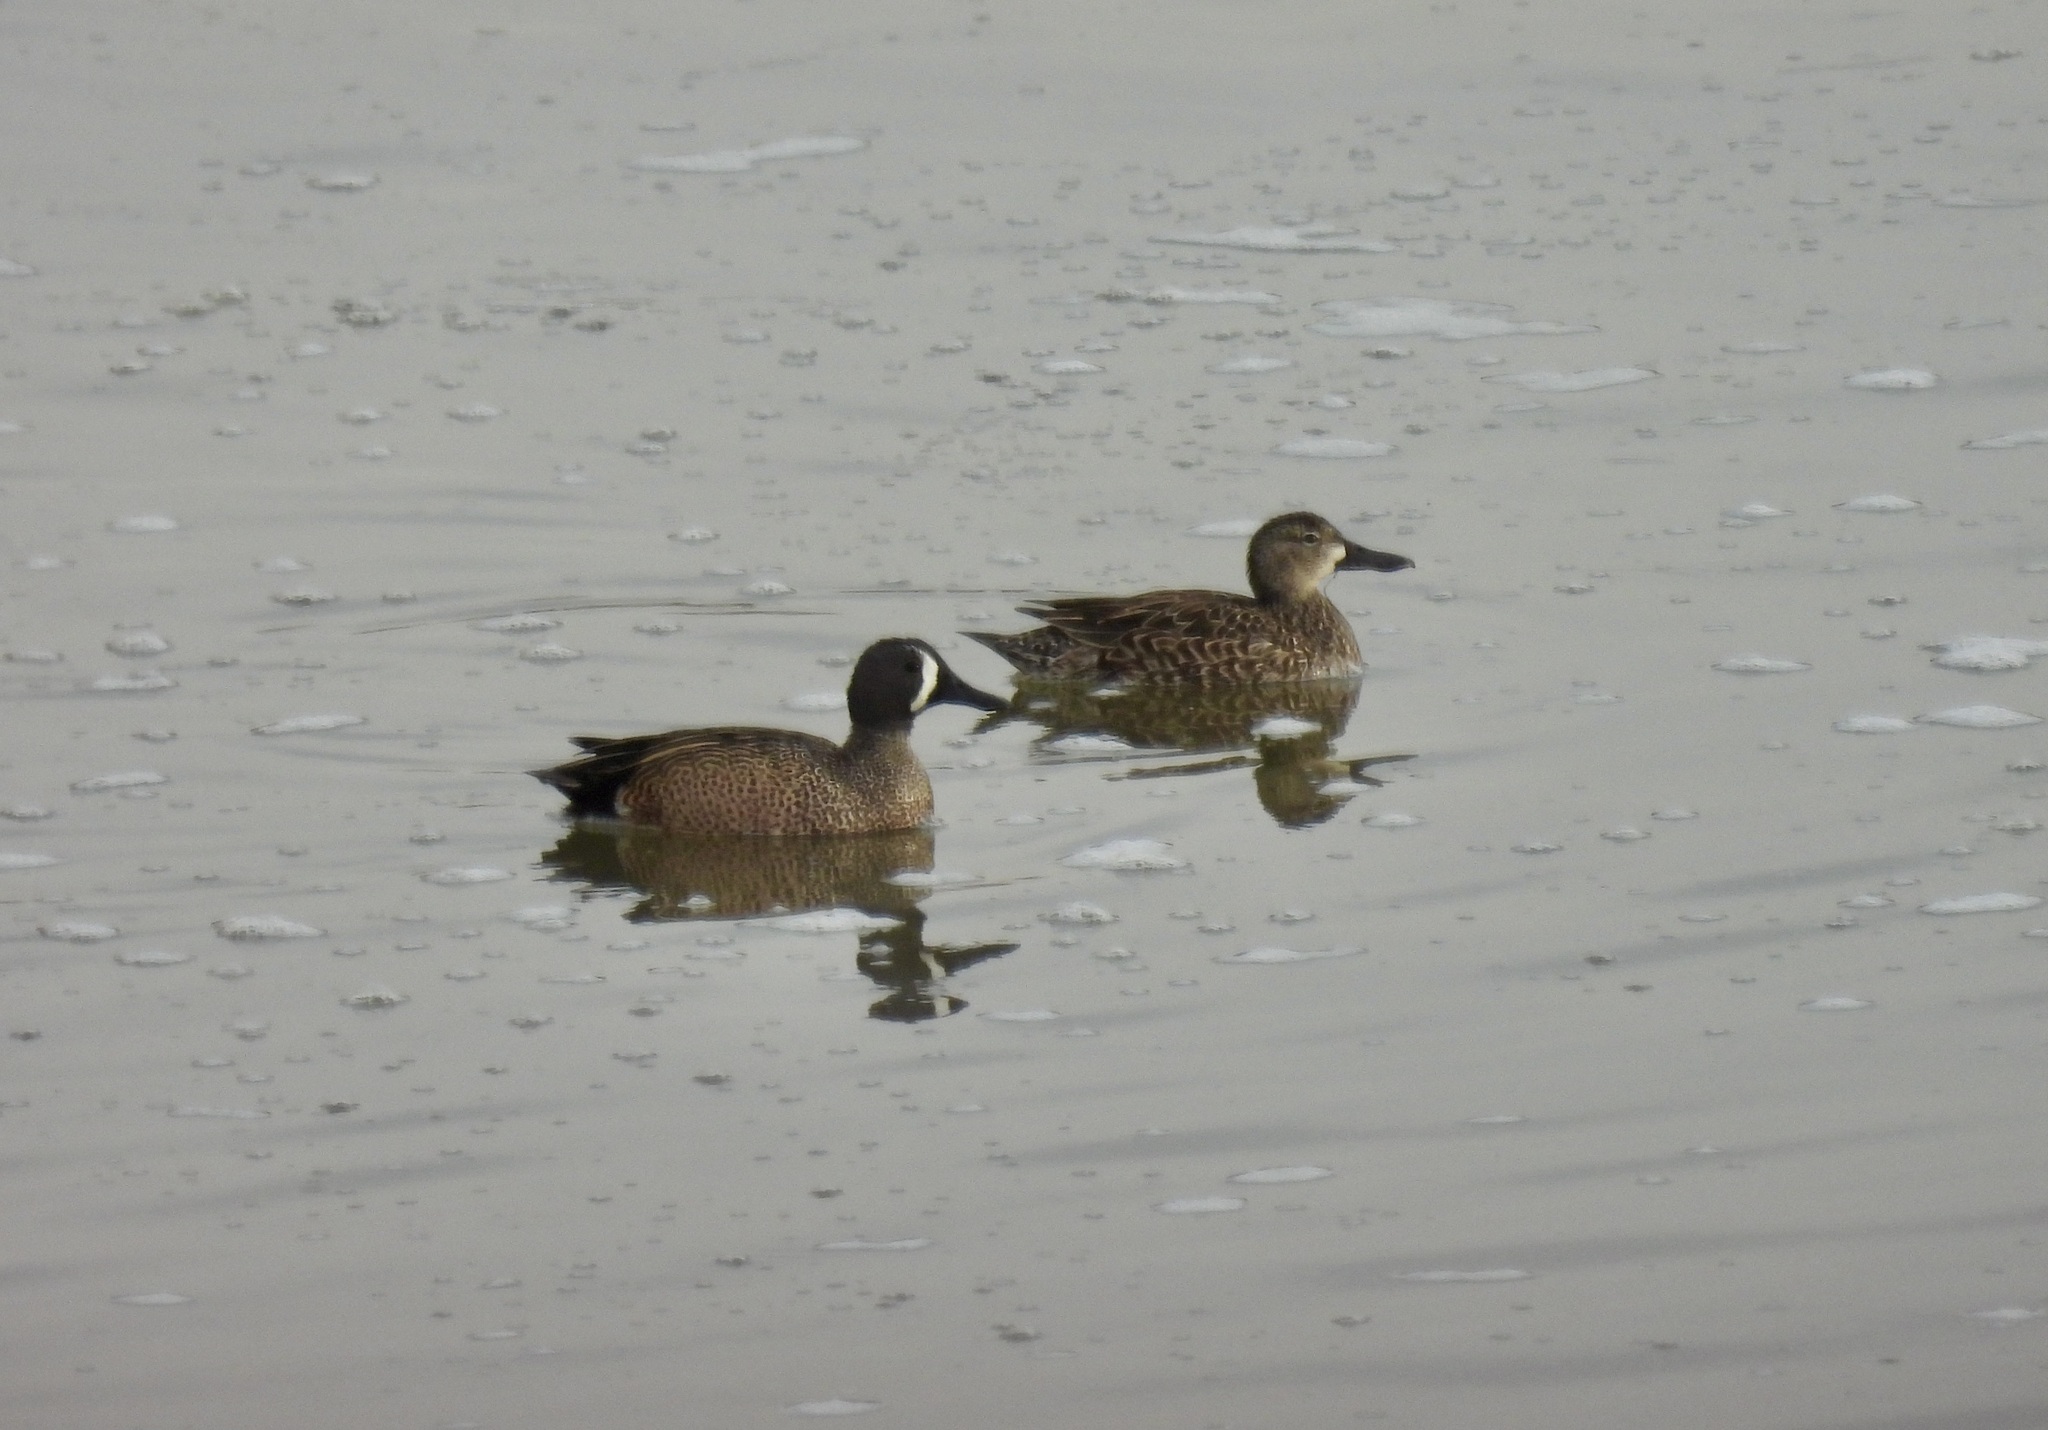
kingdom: Animalia
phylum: Chordata
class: Aves
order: Anseriformes
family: Anatidae
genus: Spatula
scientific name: Spatula discors
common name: Blue-winged teal
